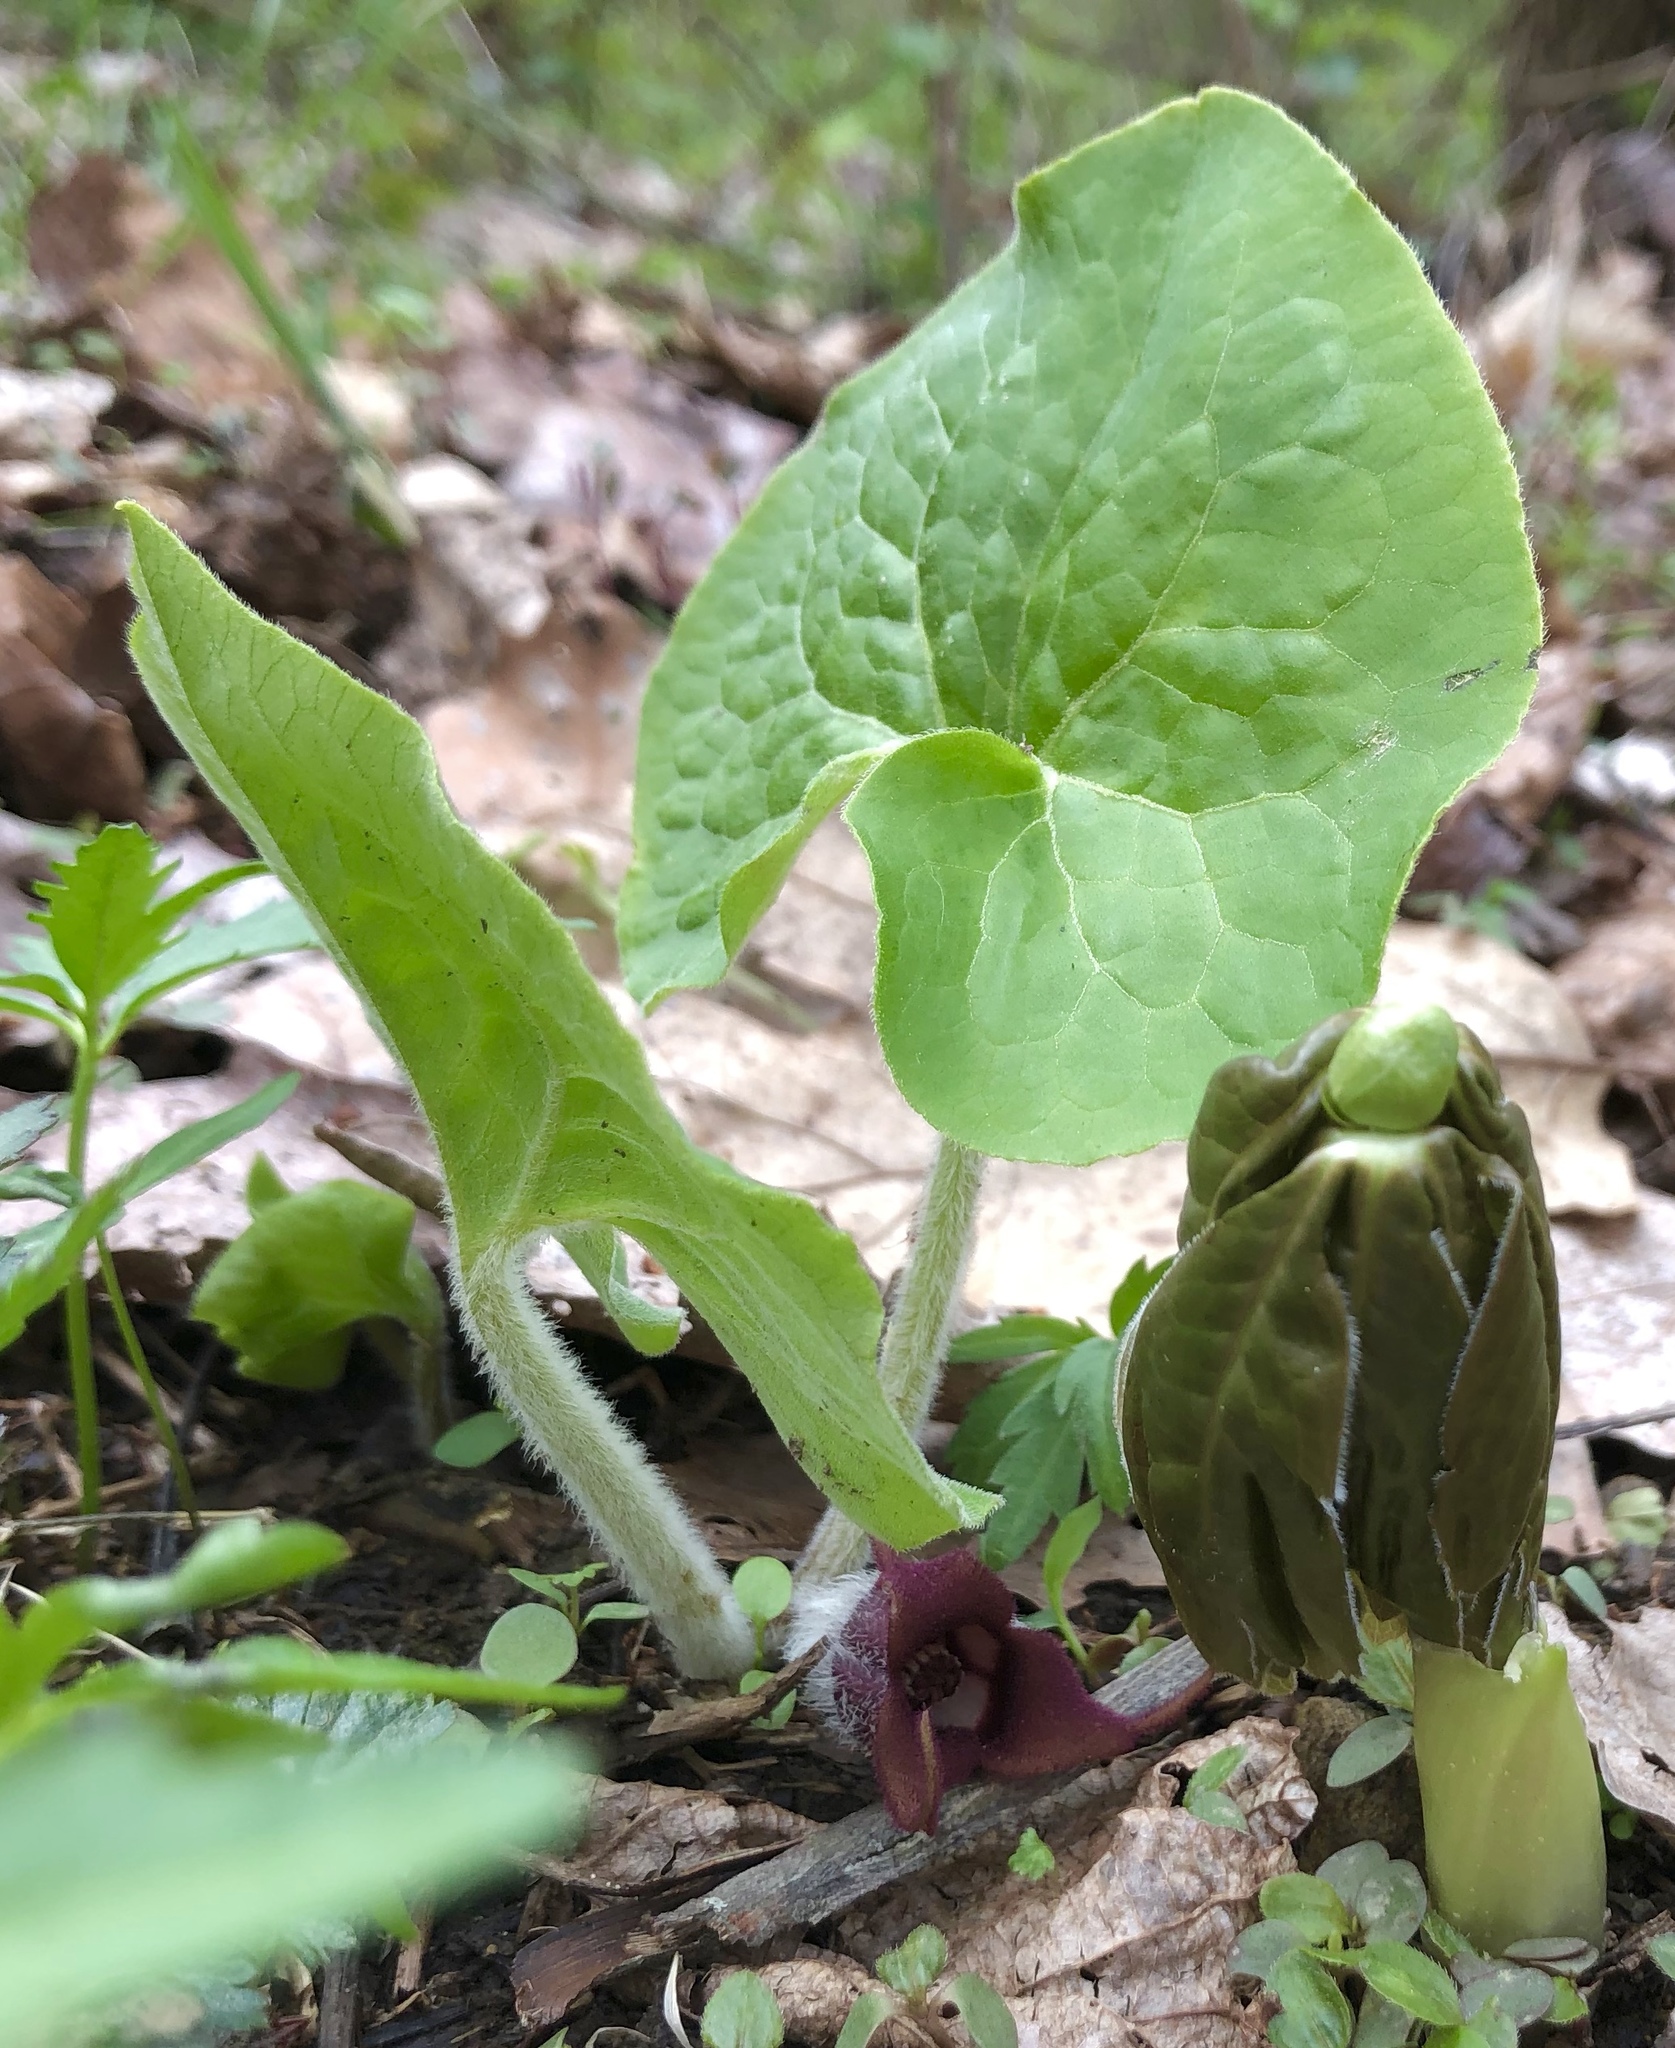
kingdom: Plantae
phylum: Tracheophyta
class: Magnoliopsida
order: Piperales
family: Aristolochiaceae
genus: Asarum
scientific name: Asarum canadense
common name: Wild ginger
